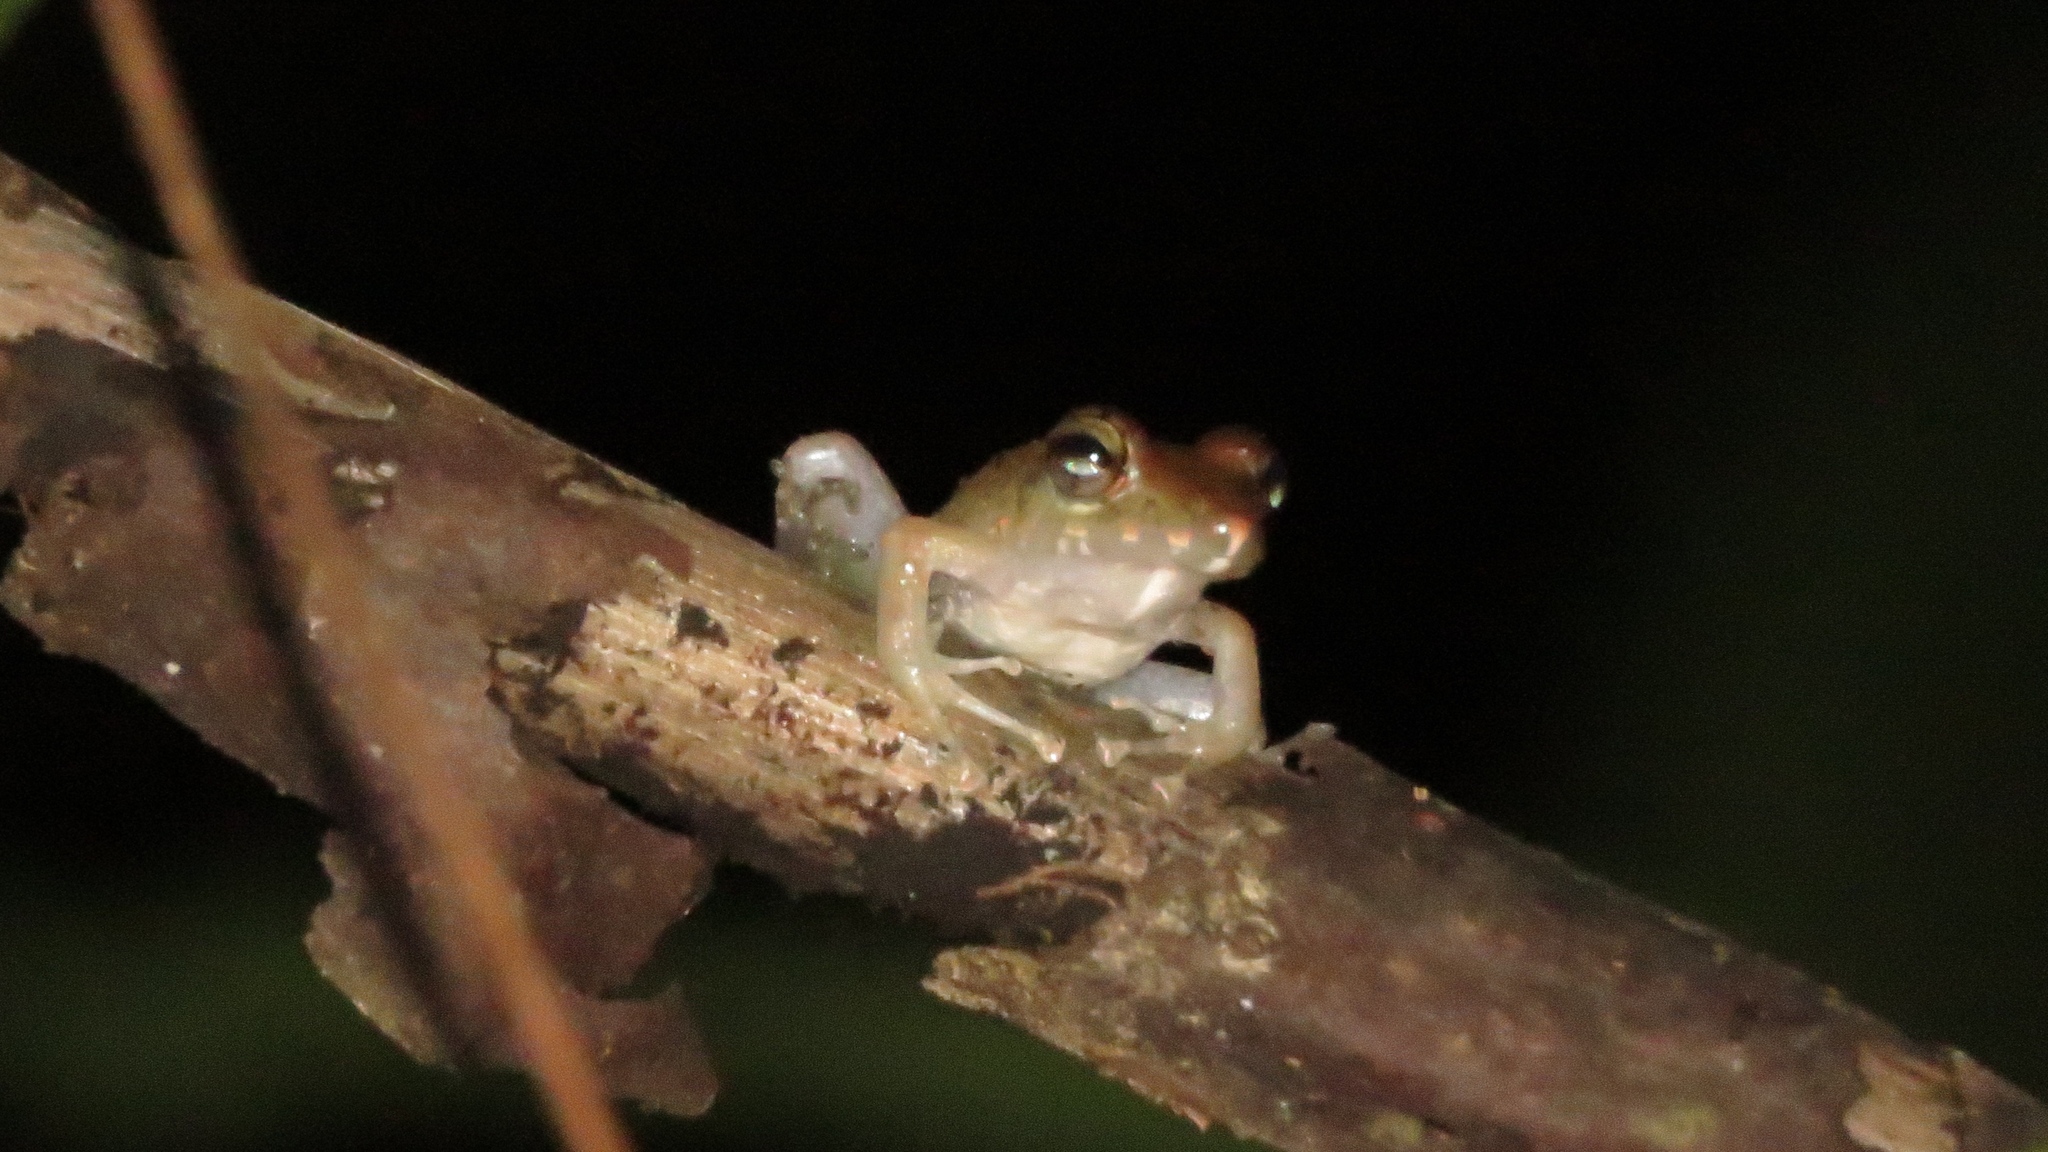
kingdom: Animalia
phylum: Chordata
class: Amphibia
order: Anura
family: Craugastoridae
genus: Craugastor
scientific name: Craugastor fitzingeri
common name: Fitzinger's robber frog
